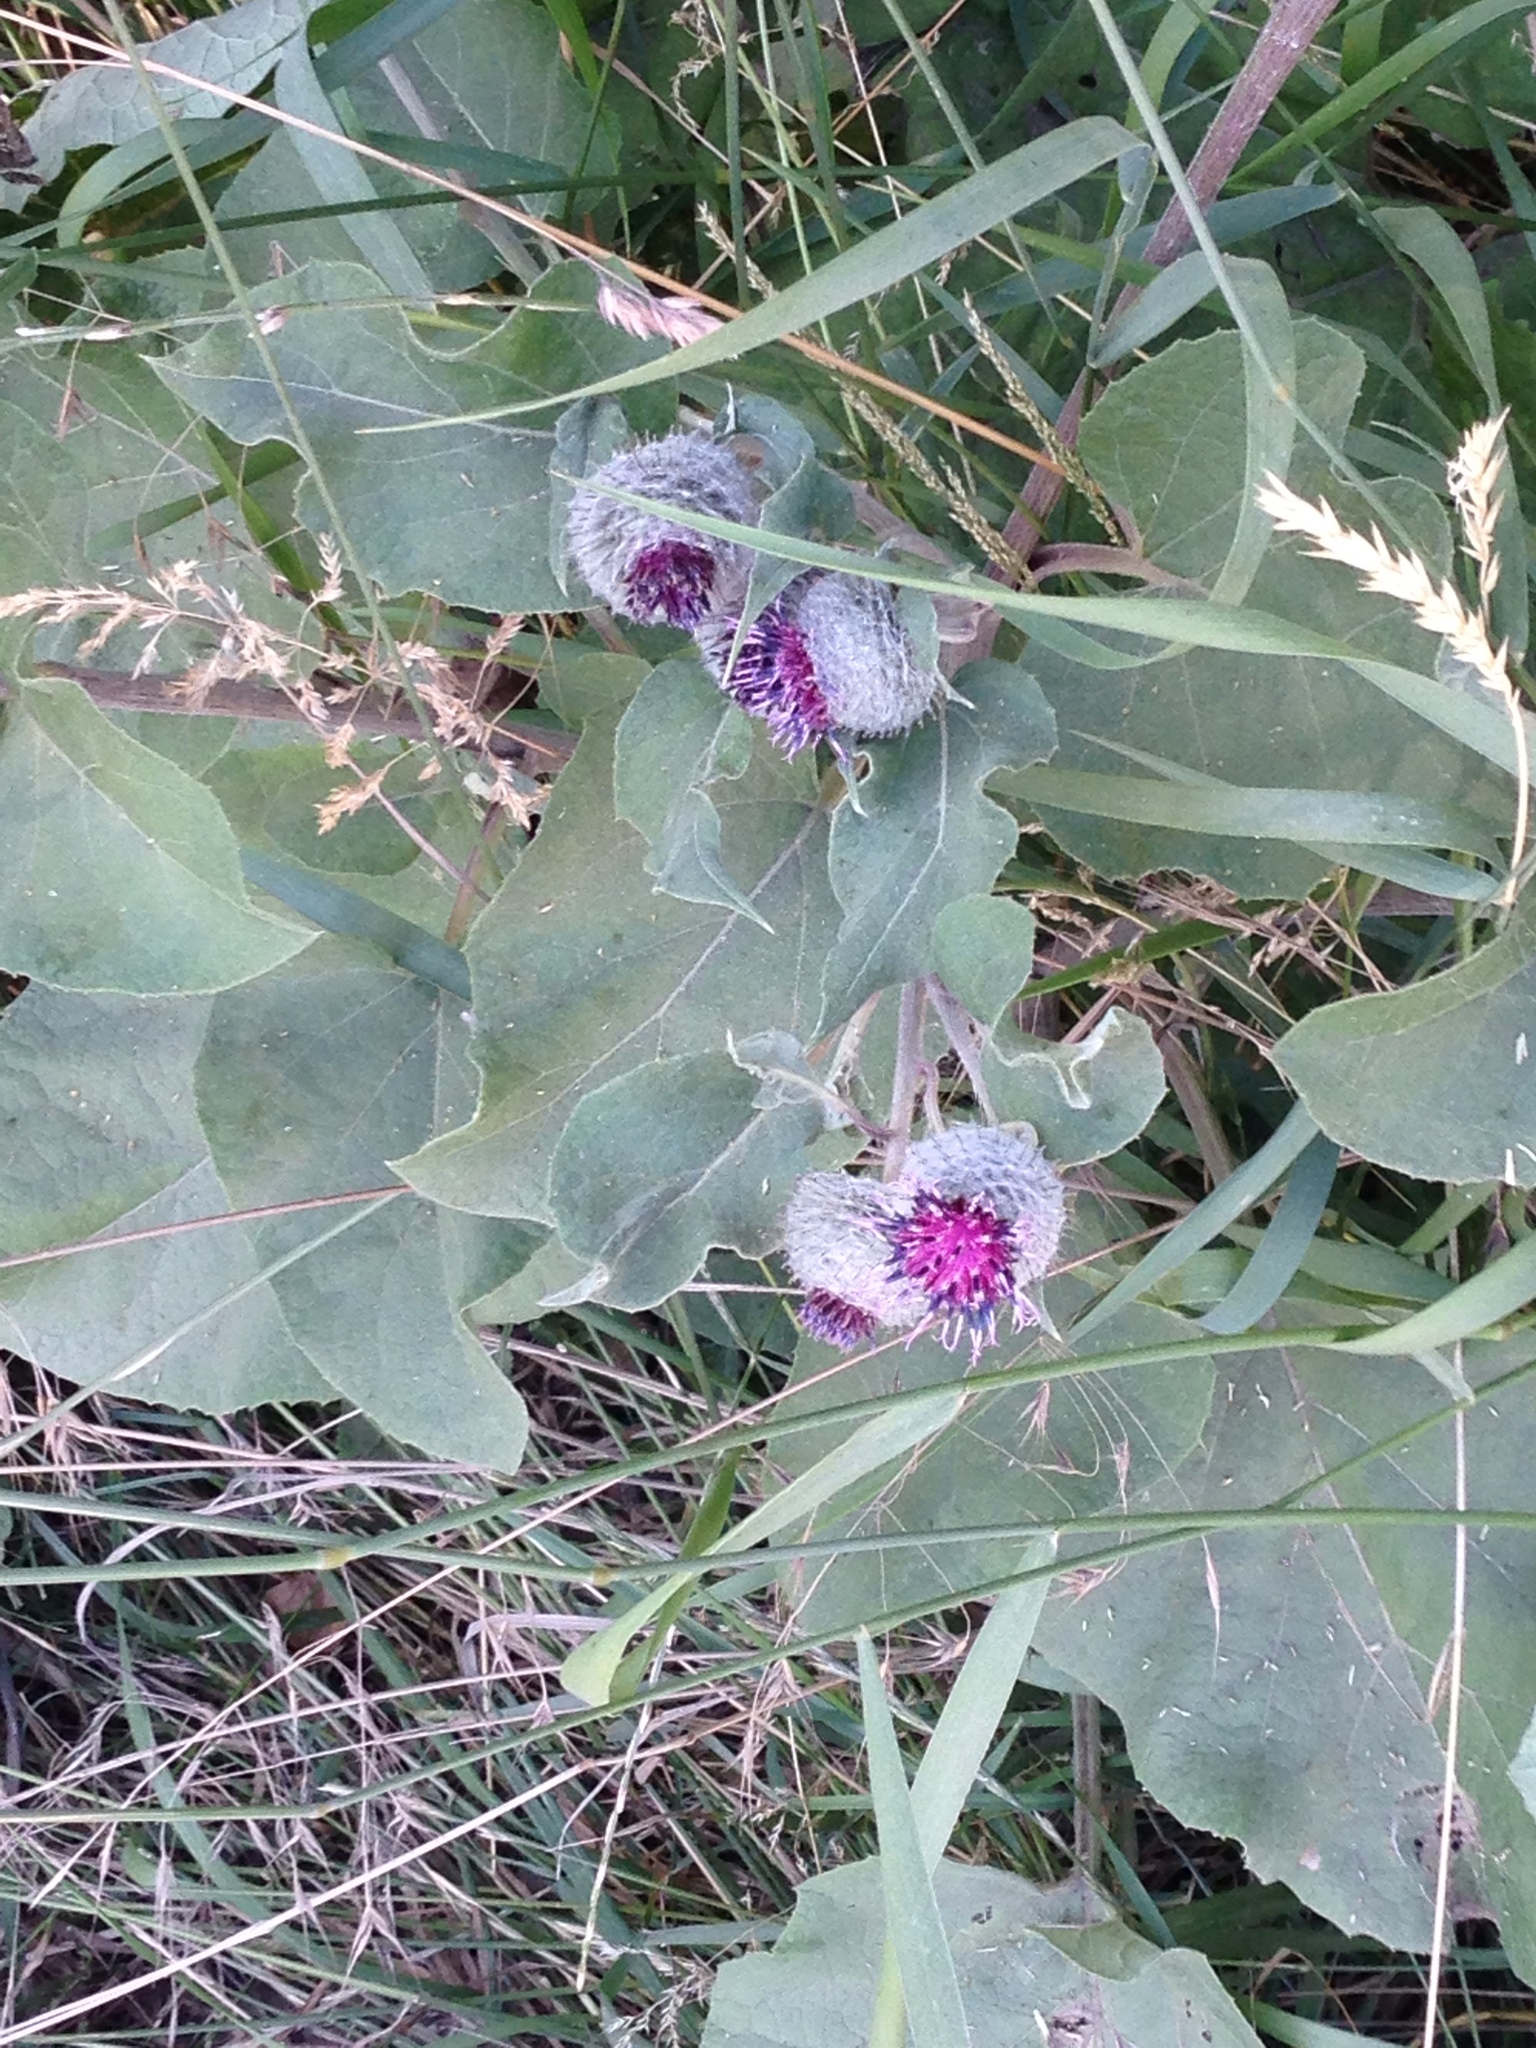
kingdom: Plantae
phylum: Tracheophyta
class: Magnoliopsida
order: Asterales
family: Asteraceae
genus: Arctium
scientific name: Arctium tomentosum
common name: Woolly burdock
